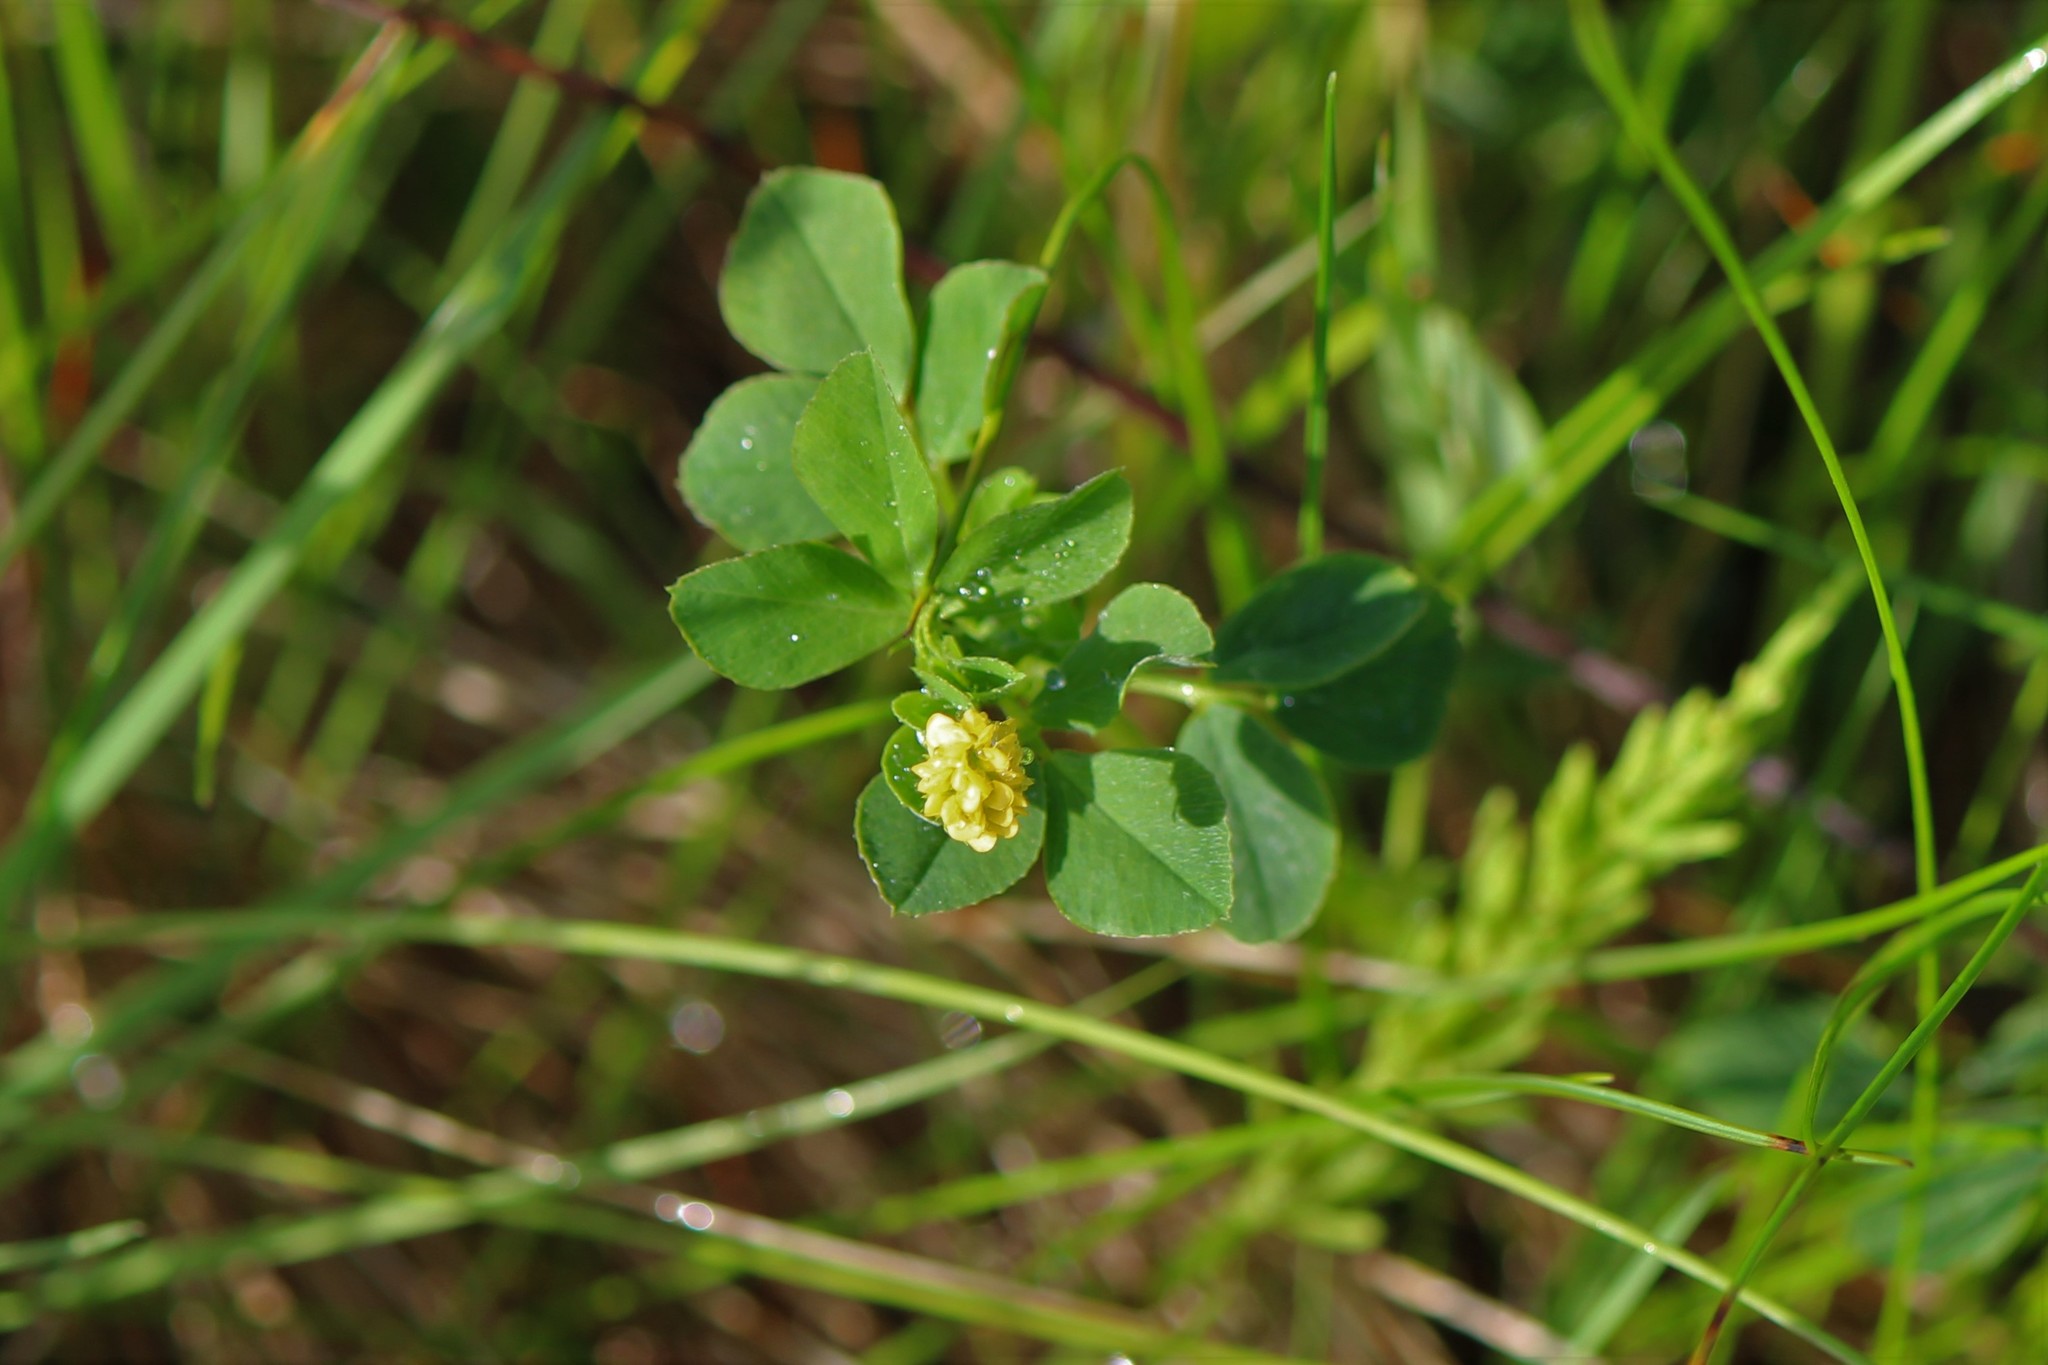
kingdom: Plantae
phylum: Tracheophyta
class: Magnoliopsida
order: Fabales
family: Fabaceae
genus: Medicago
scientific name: Medicago lupulina
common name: Black medick
